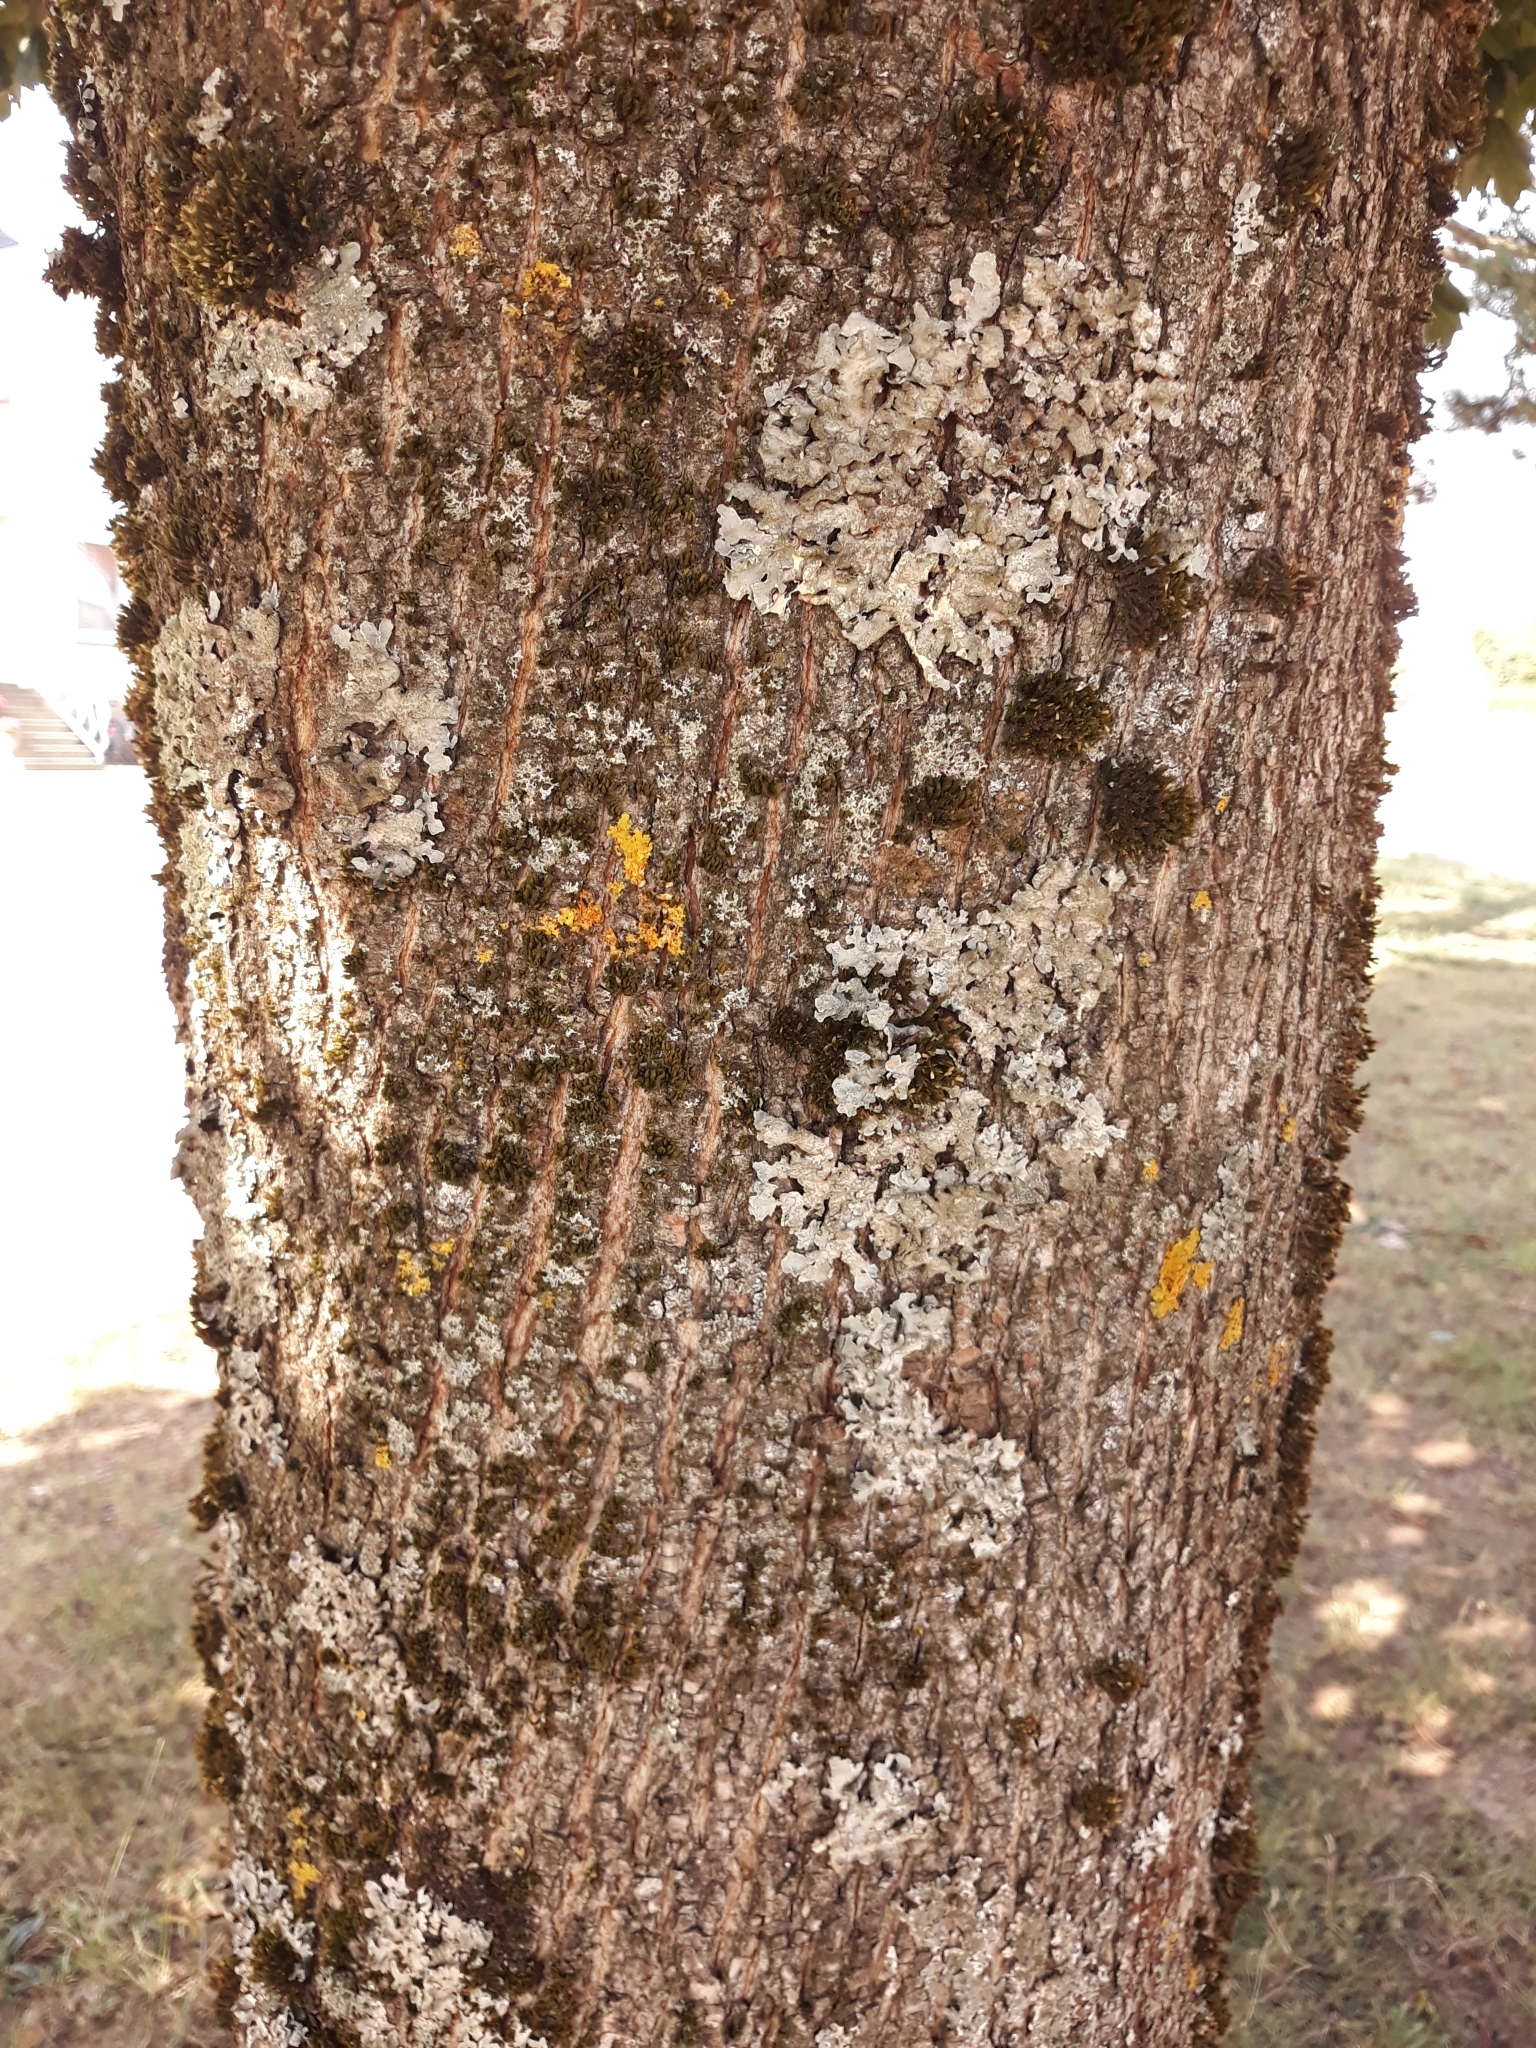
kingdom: Plantae
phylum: Tracheophyta
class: Magnoliopsida
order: Sapindales
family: Sapindaceae
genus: Acer
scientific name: Acer platanoides
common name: Norway maple
